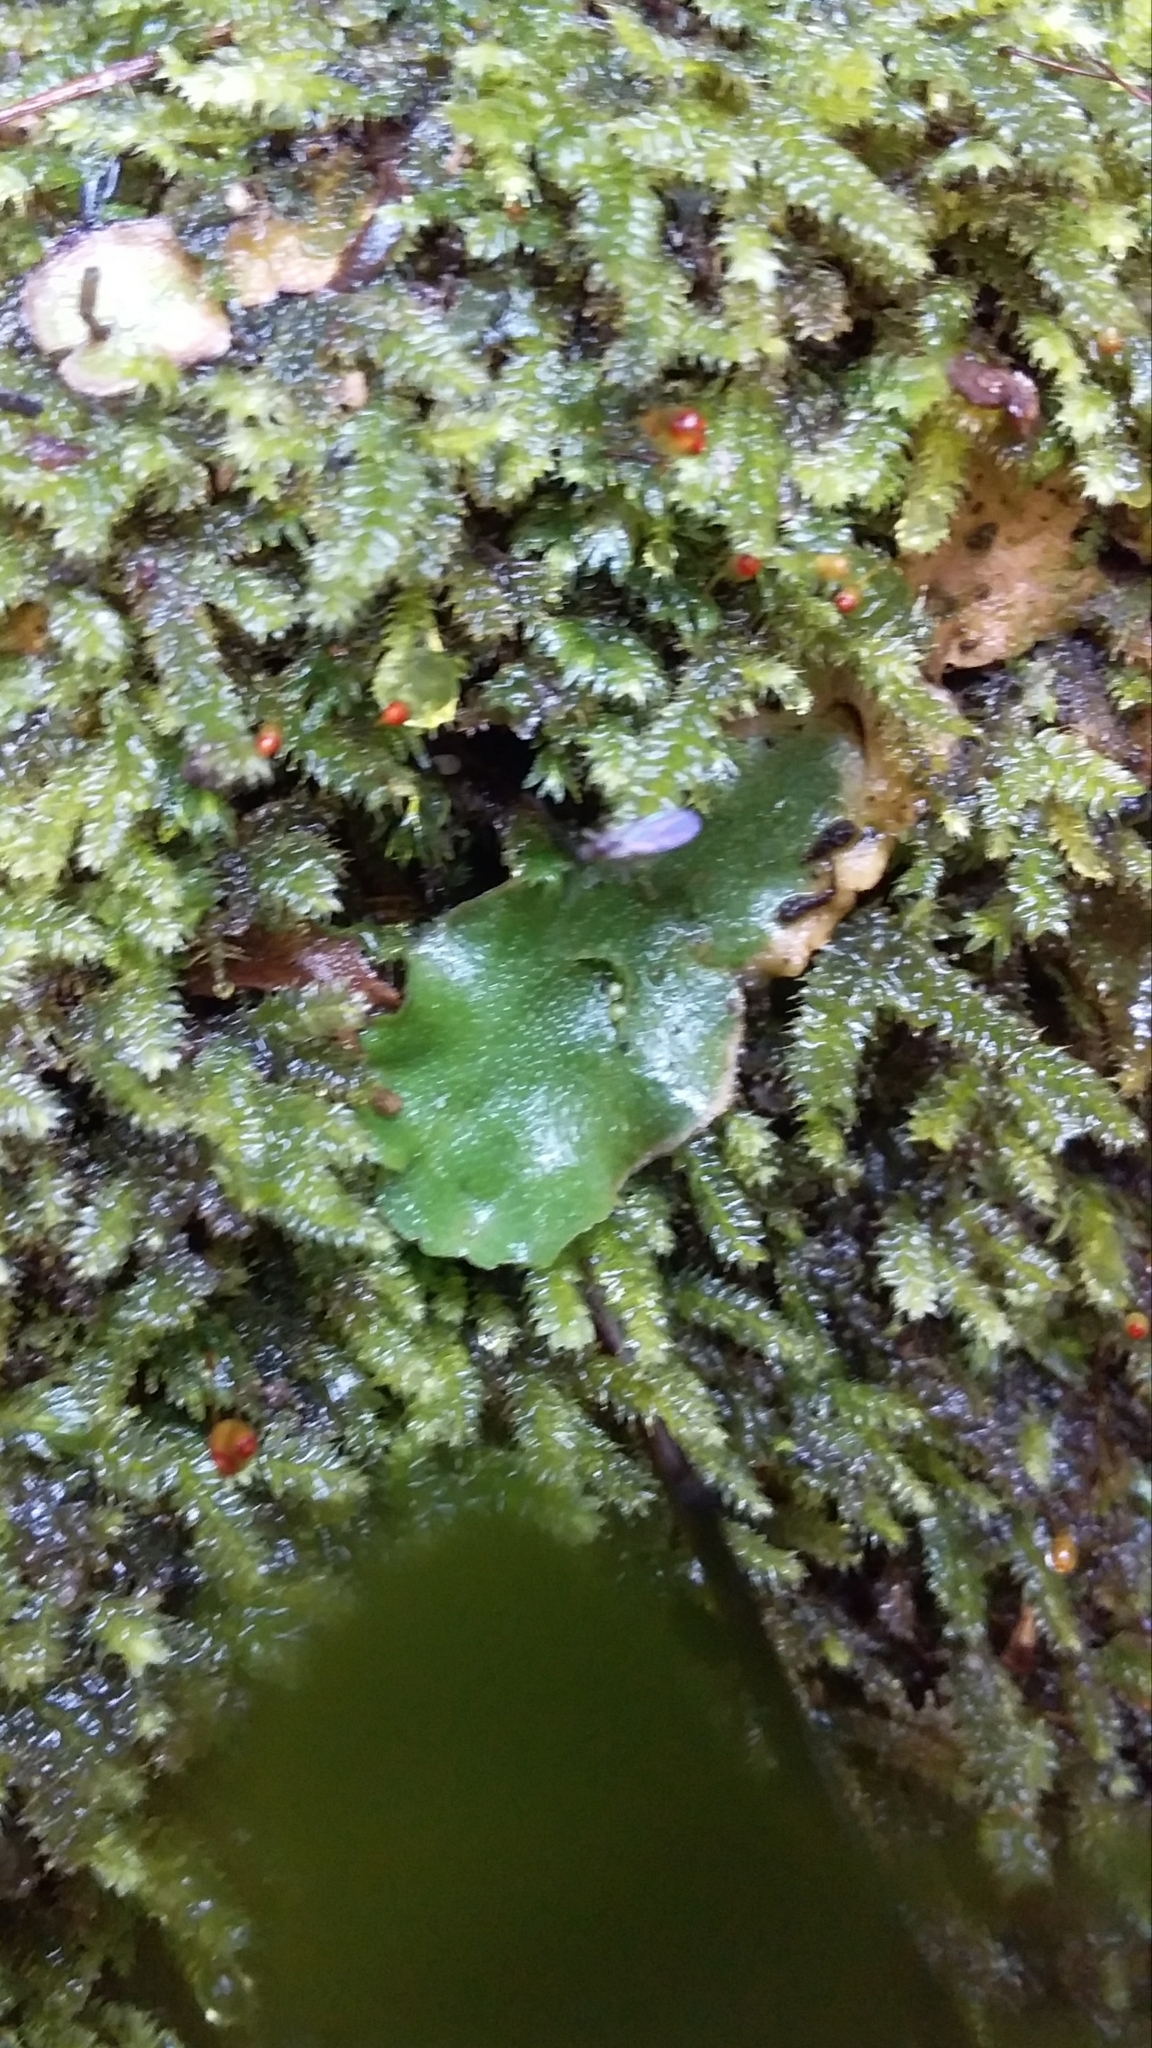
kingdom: Plantae
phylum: Marchantiophyta
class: Marchantiopsida
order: Lunulariales
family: Lunulariaceae
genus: Lunularia
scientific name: Lunularia cruciata
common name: Crescent-cup liverwort
